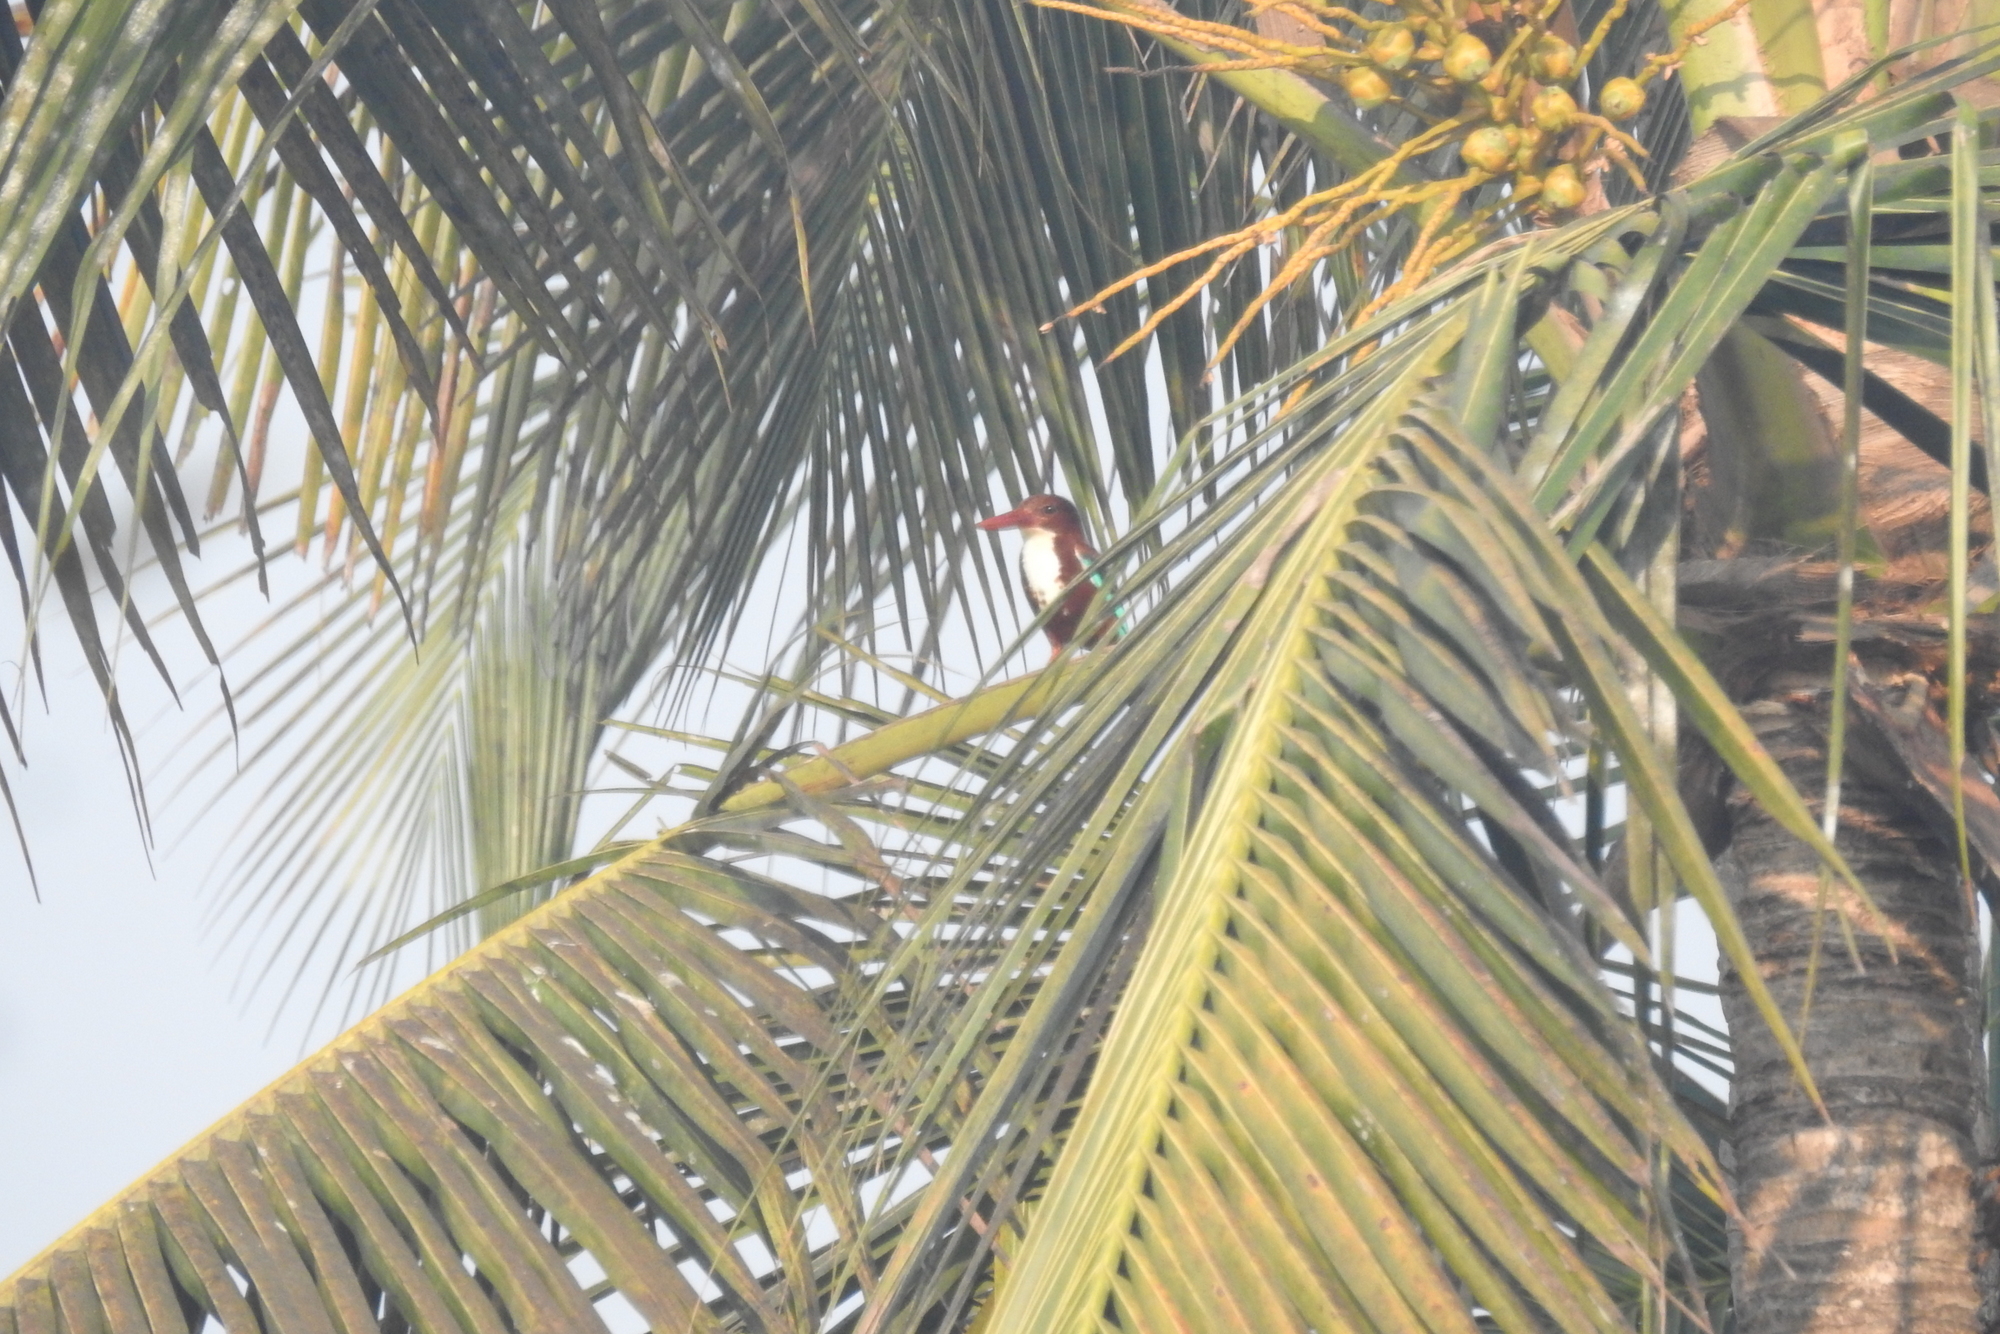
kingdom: Animalia
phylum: Chordata
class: Aves
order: Coraciiformes
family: Alcedinidae
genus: Halcyon
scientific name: Halcyon smyrnensis
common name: White-throated kingfisher
